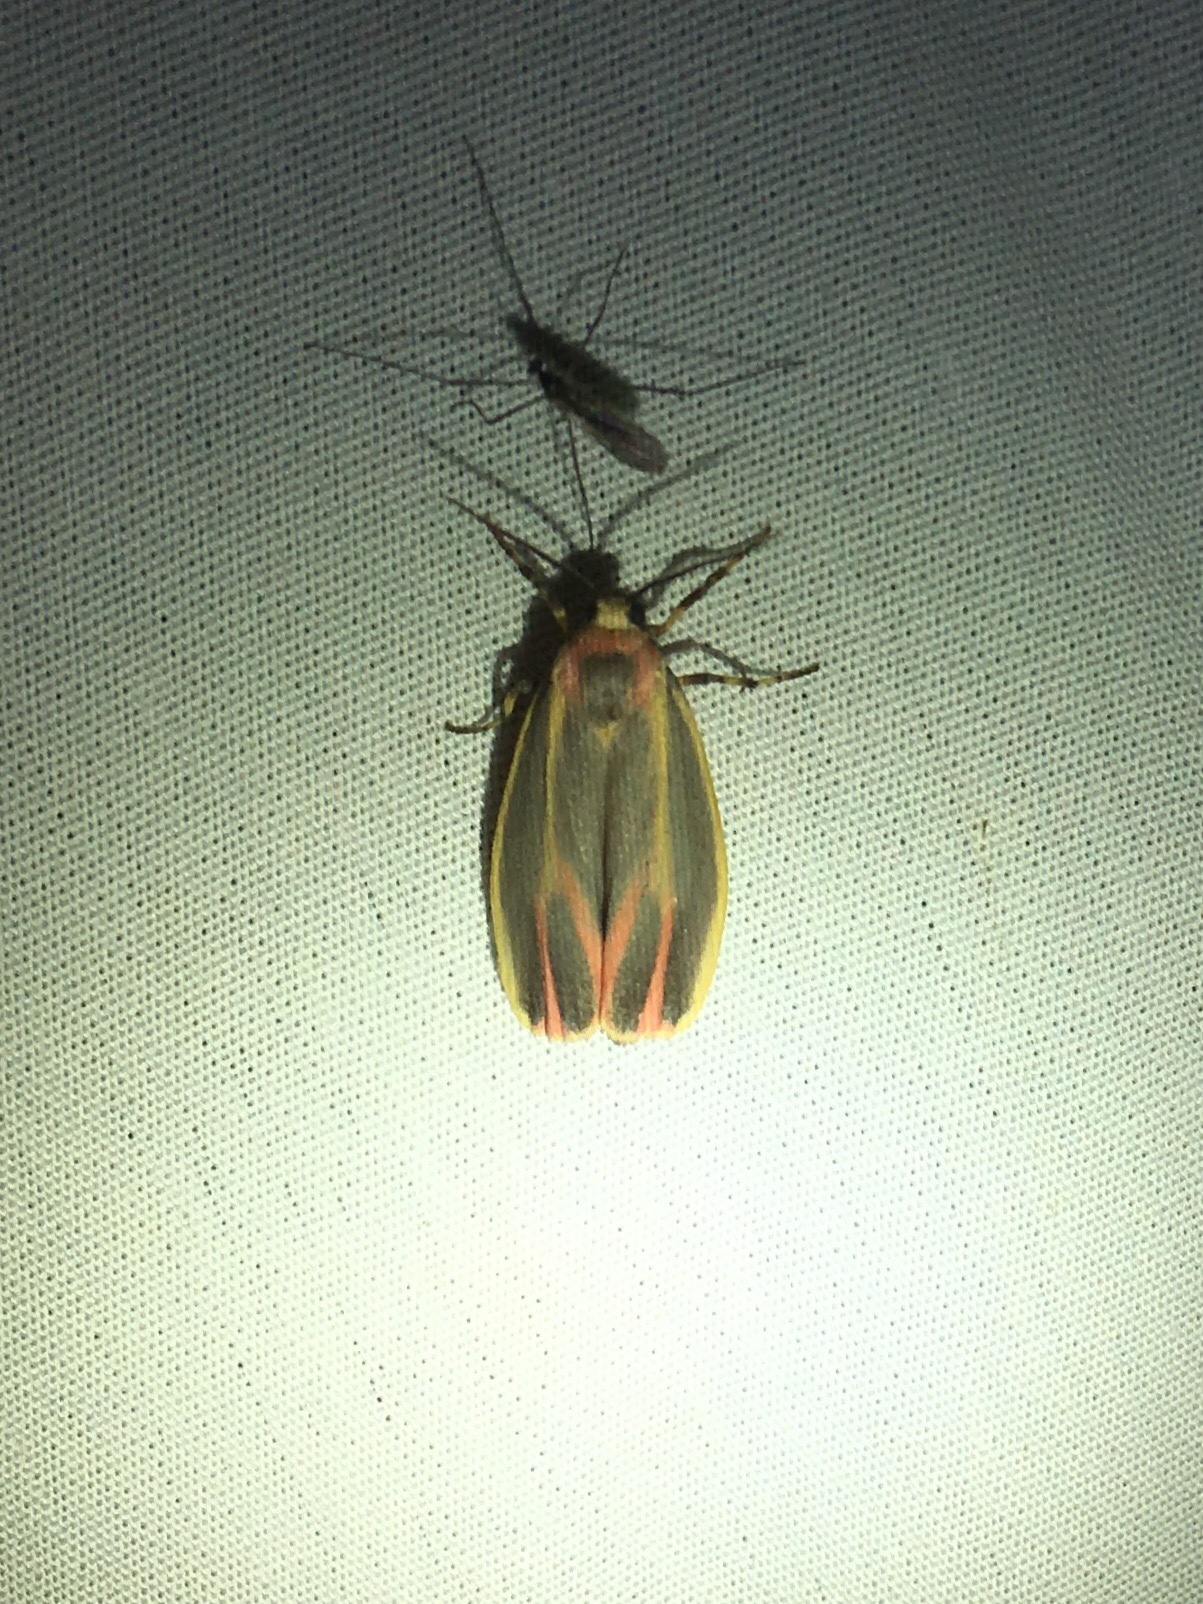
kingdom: Animalia
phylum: Arthropoda
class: Insecta
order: Lepidoptera
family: Erebidae
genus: Hypoprepia
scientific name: Hypoprepia fucosa
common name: Painted lichen moth
